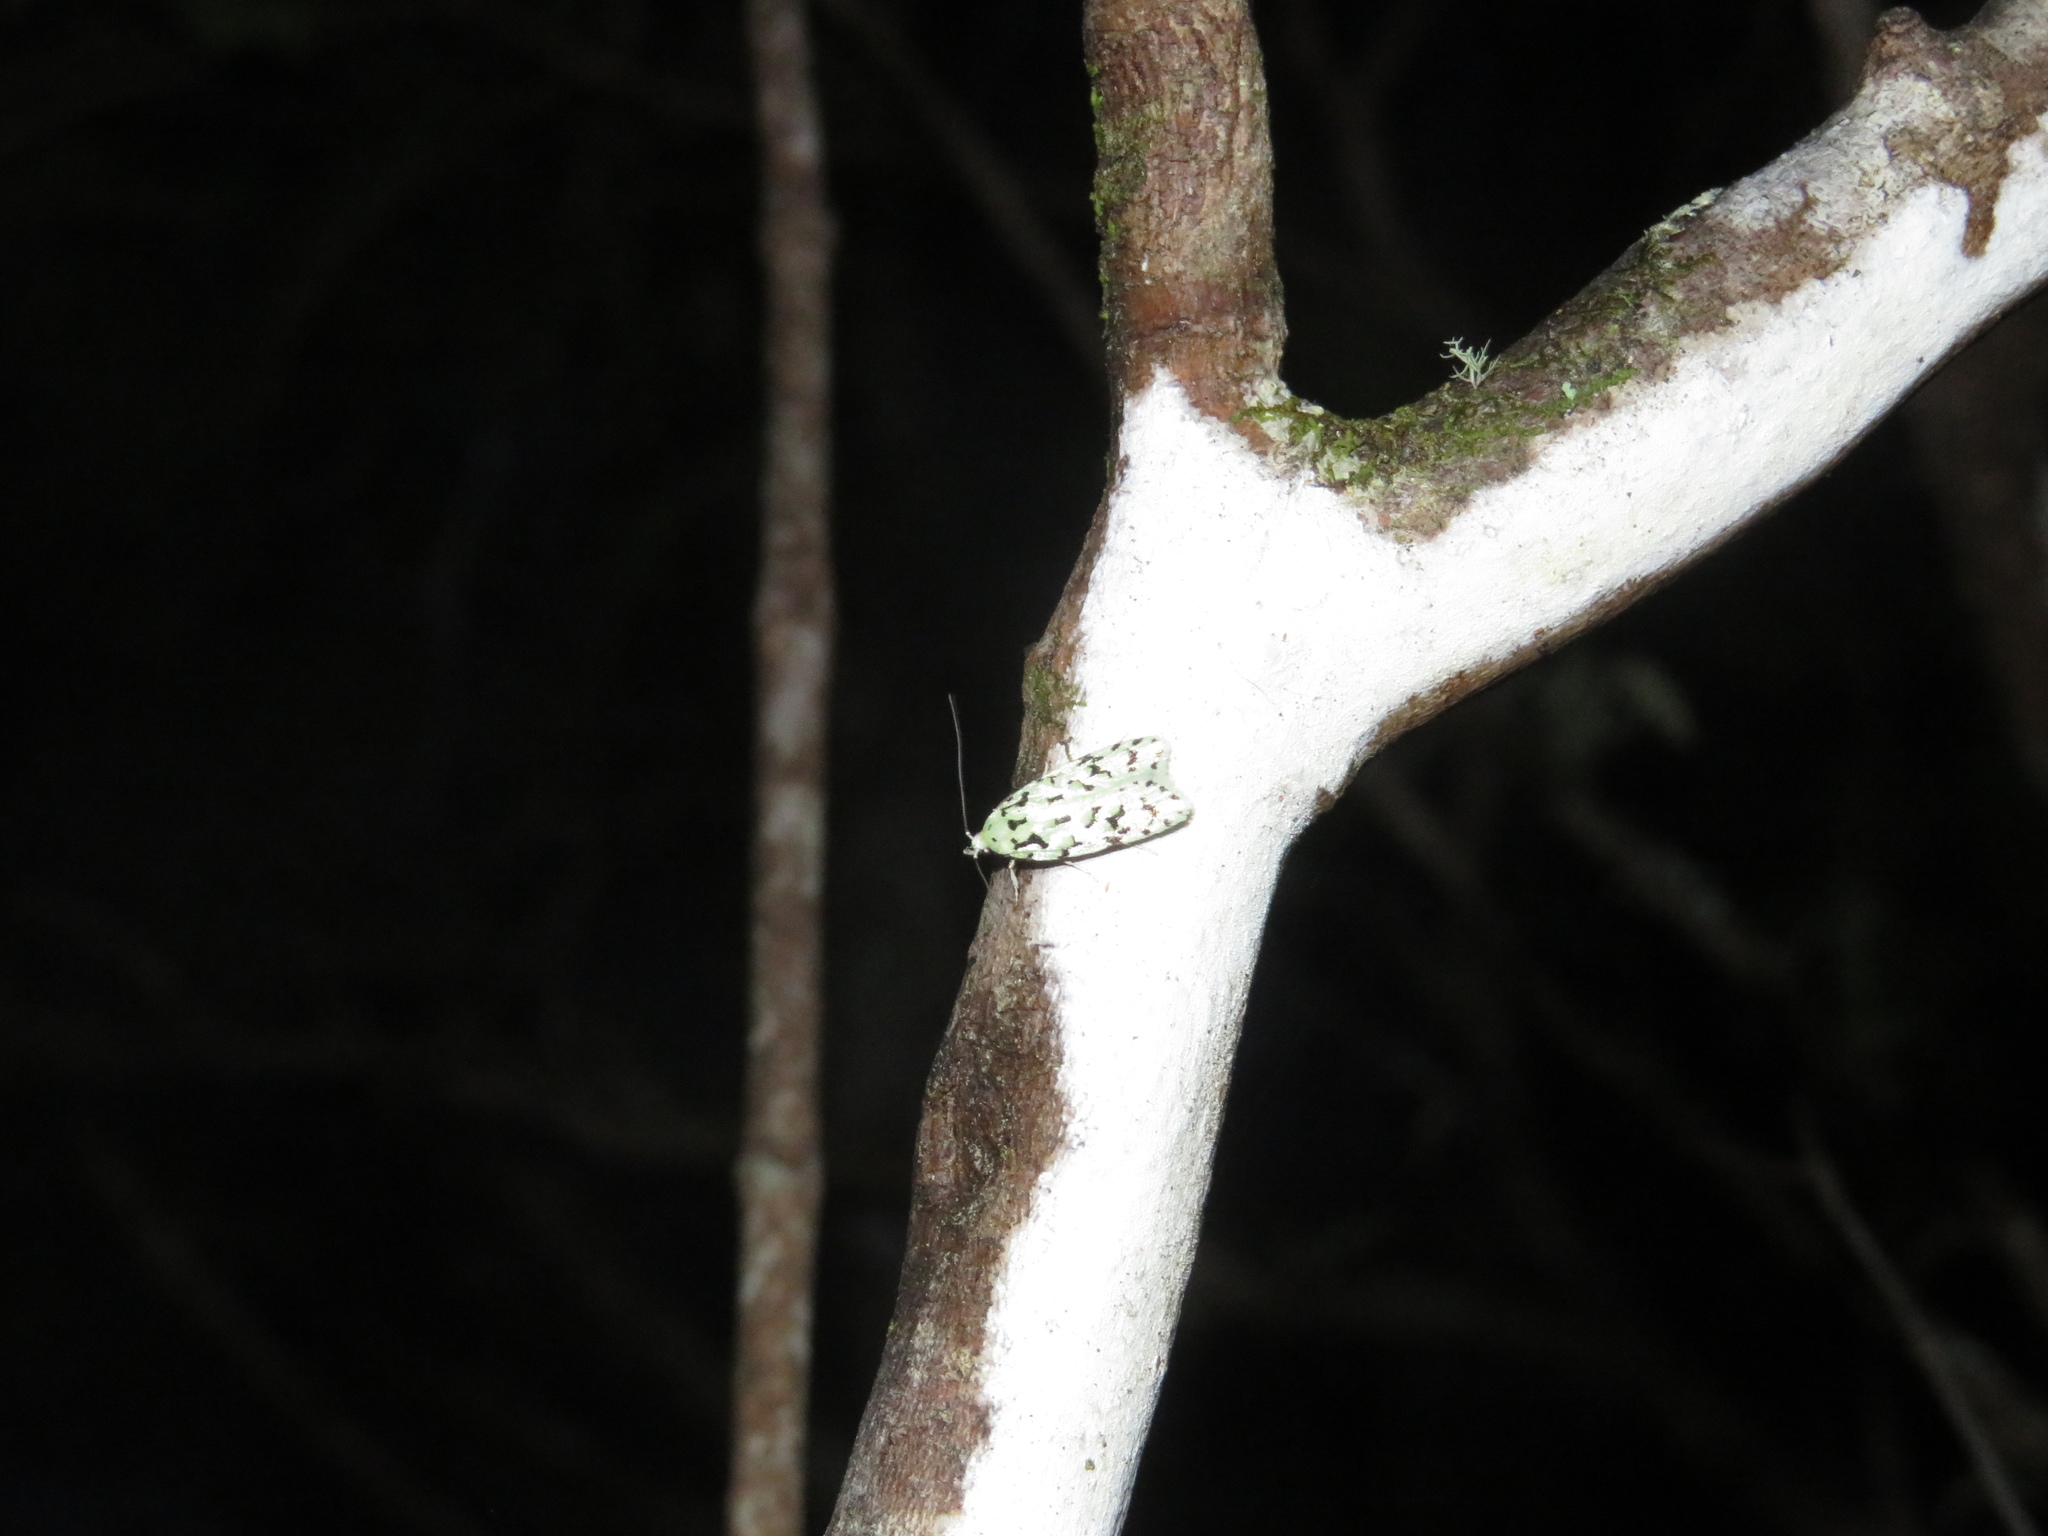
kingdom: Animalia
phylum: Arthropoda
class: Insecta
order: Lepidoptera
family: Oecophoridae
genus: Izatha
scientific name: Izatha peroneanella
